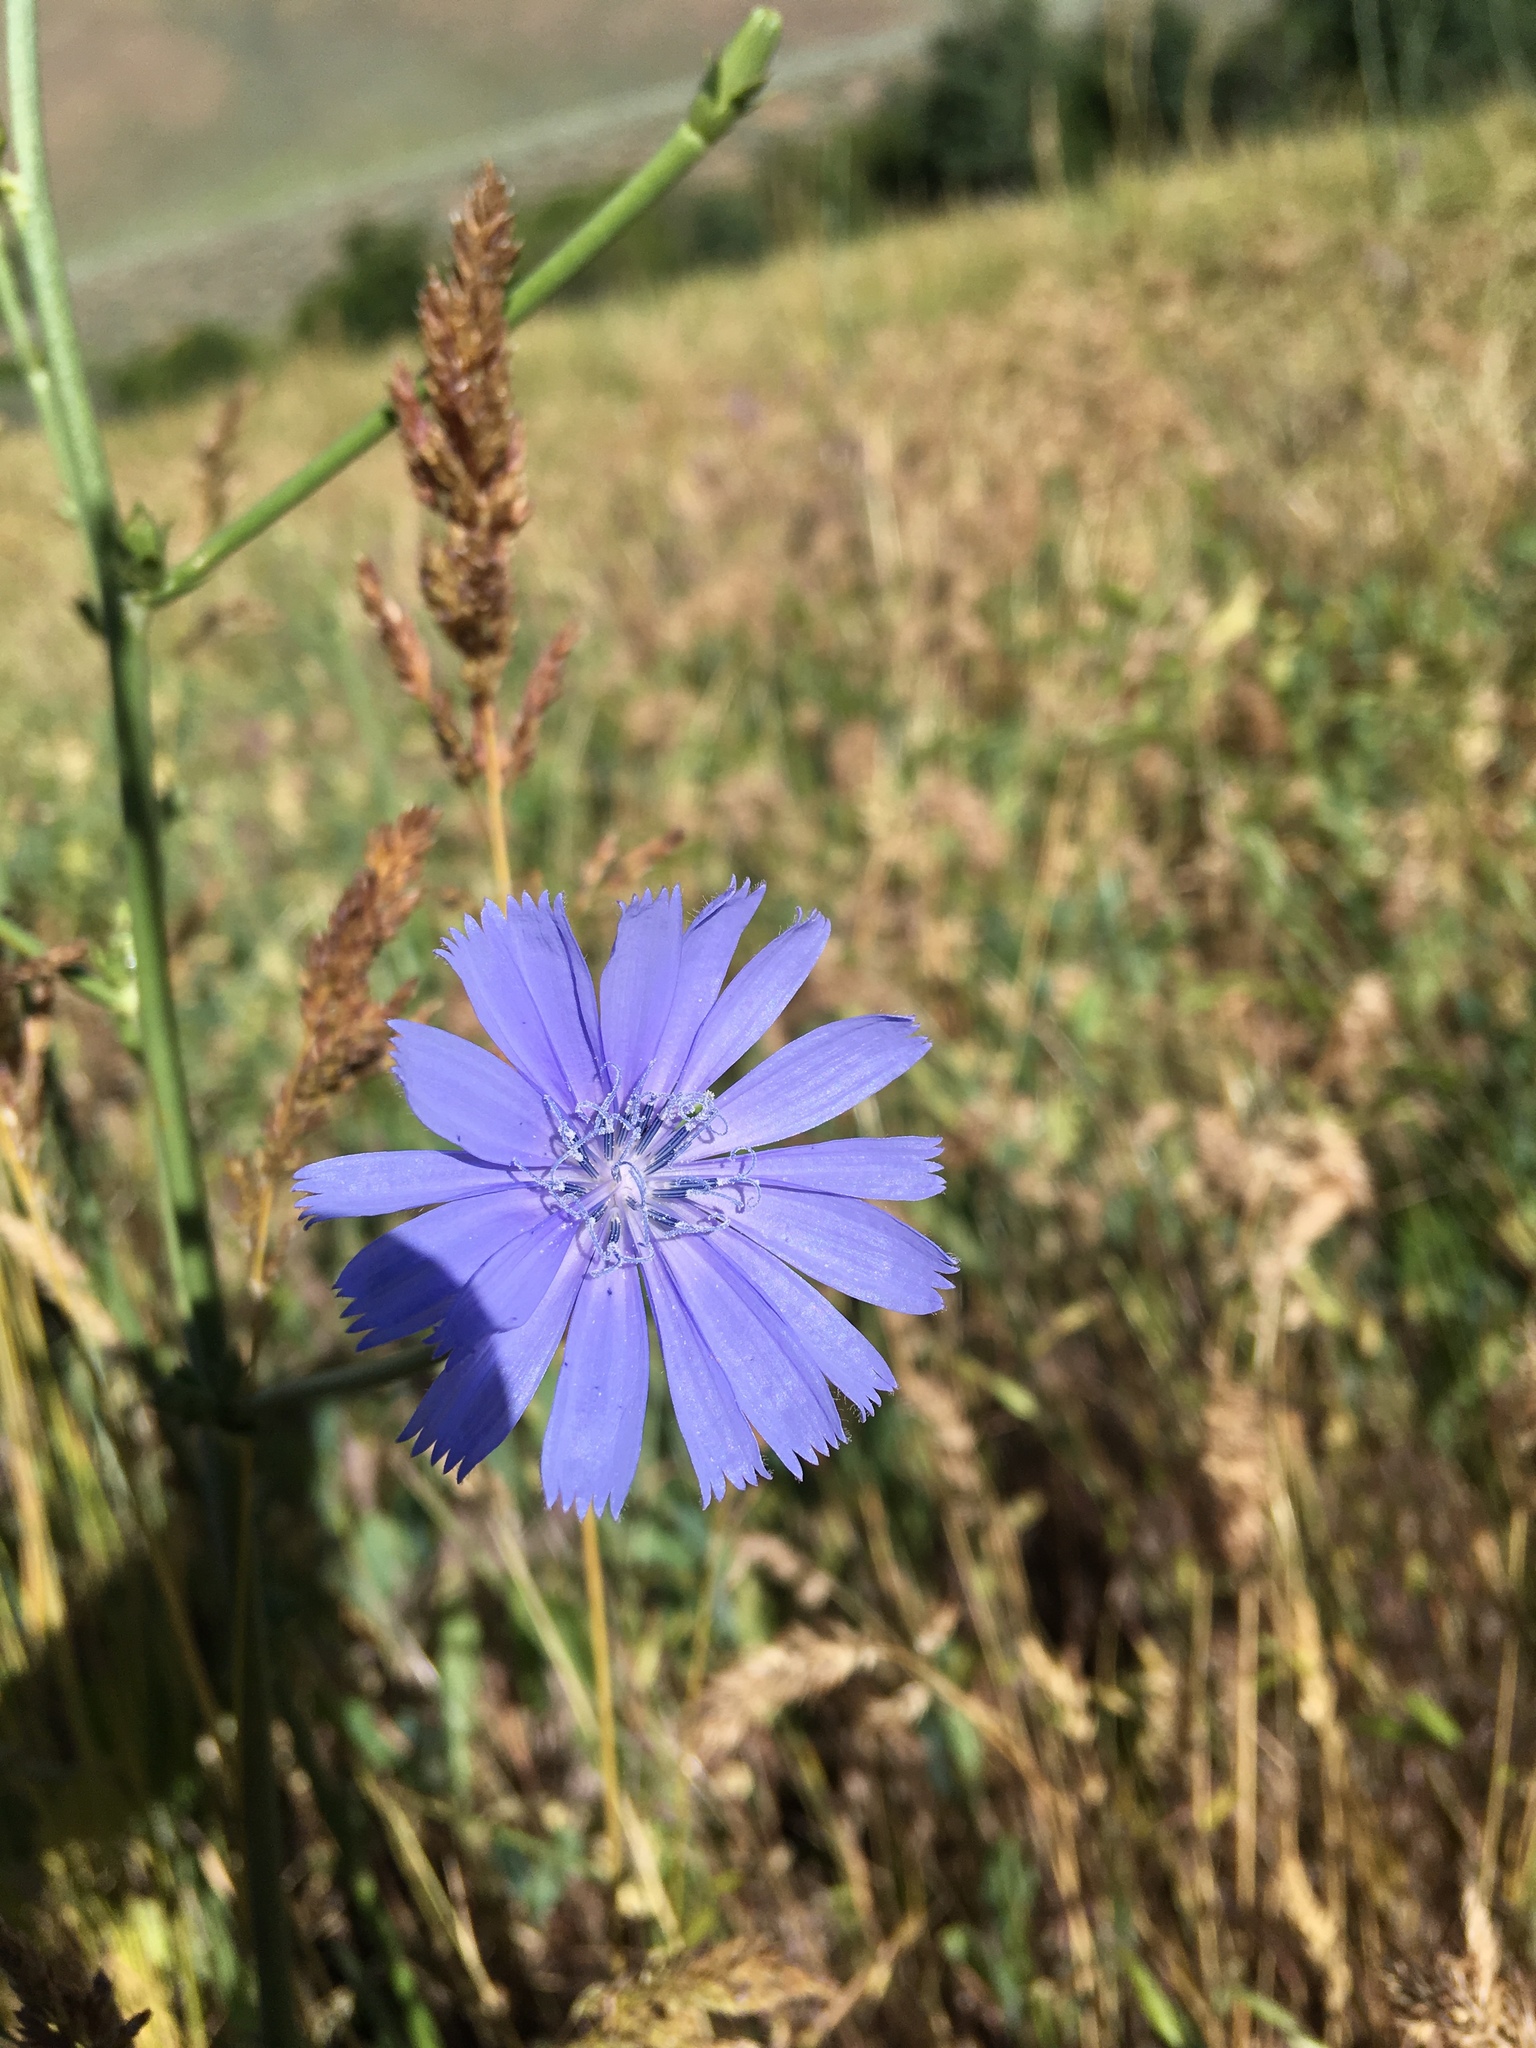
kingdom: Plantae
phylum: Tracheophyta
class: Magnoliopsida
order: Asterales
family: Asteraceae
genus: Cichorium
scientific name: Cichorium intybus
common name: Chicory
